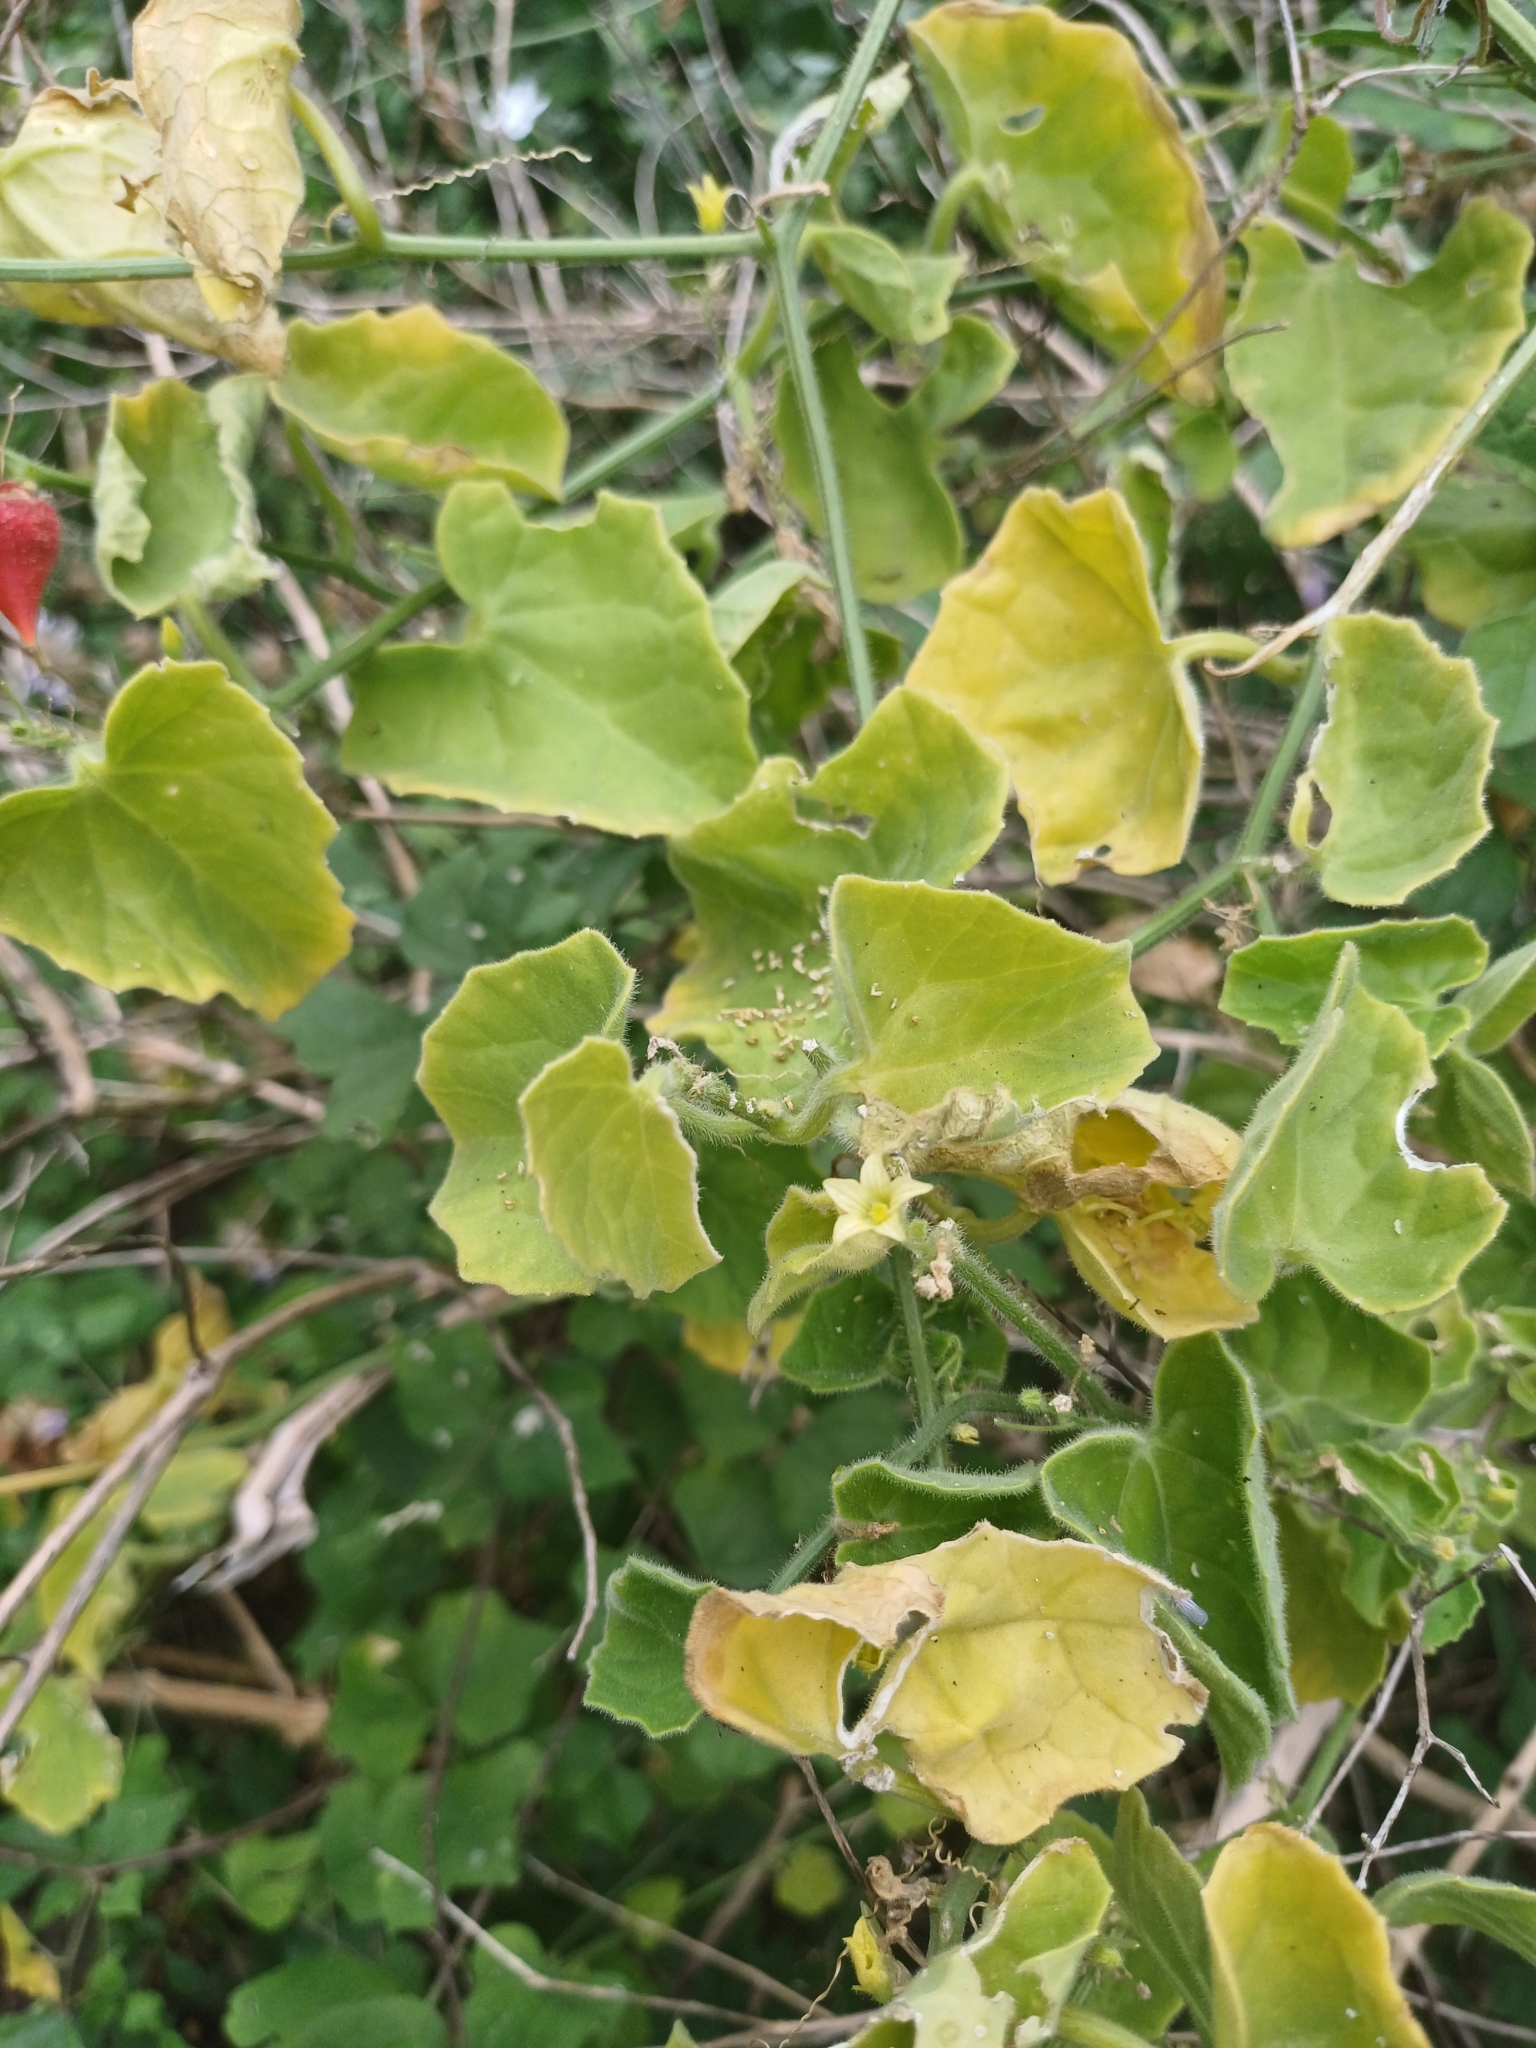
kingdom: Plantae
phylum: Tracheophyta
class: Magnoliopsida
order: Cucurbitales
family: Cucurbitaceae
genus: Kedrostis
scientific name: Kedrostis foetidissima
